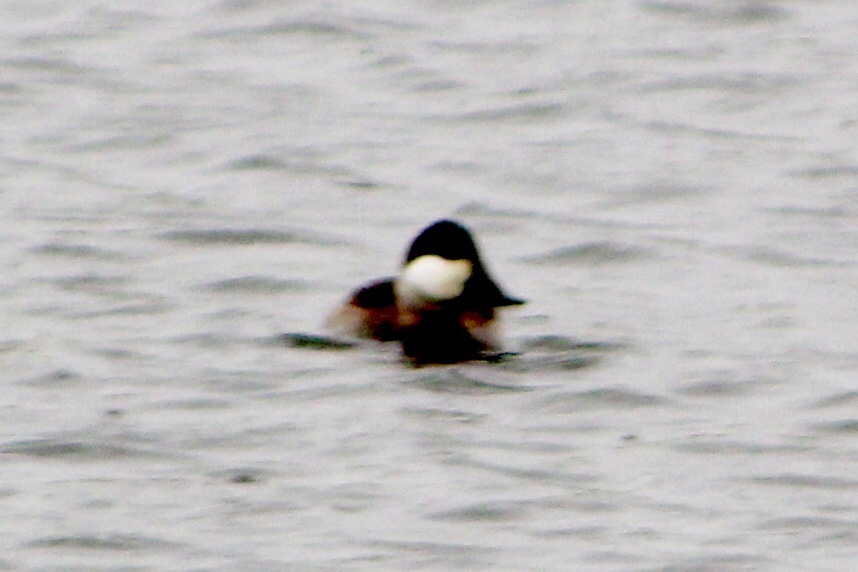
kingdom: Animalia
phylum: Chordata
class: Aves
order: Anseriformes
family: Anatidae
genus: Oxyura
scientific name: Oxyura jamaicensis
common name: Ruddy duck
